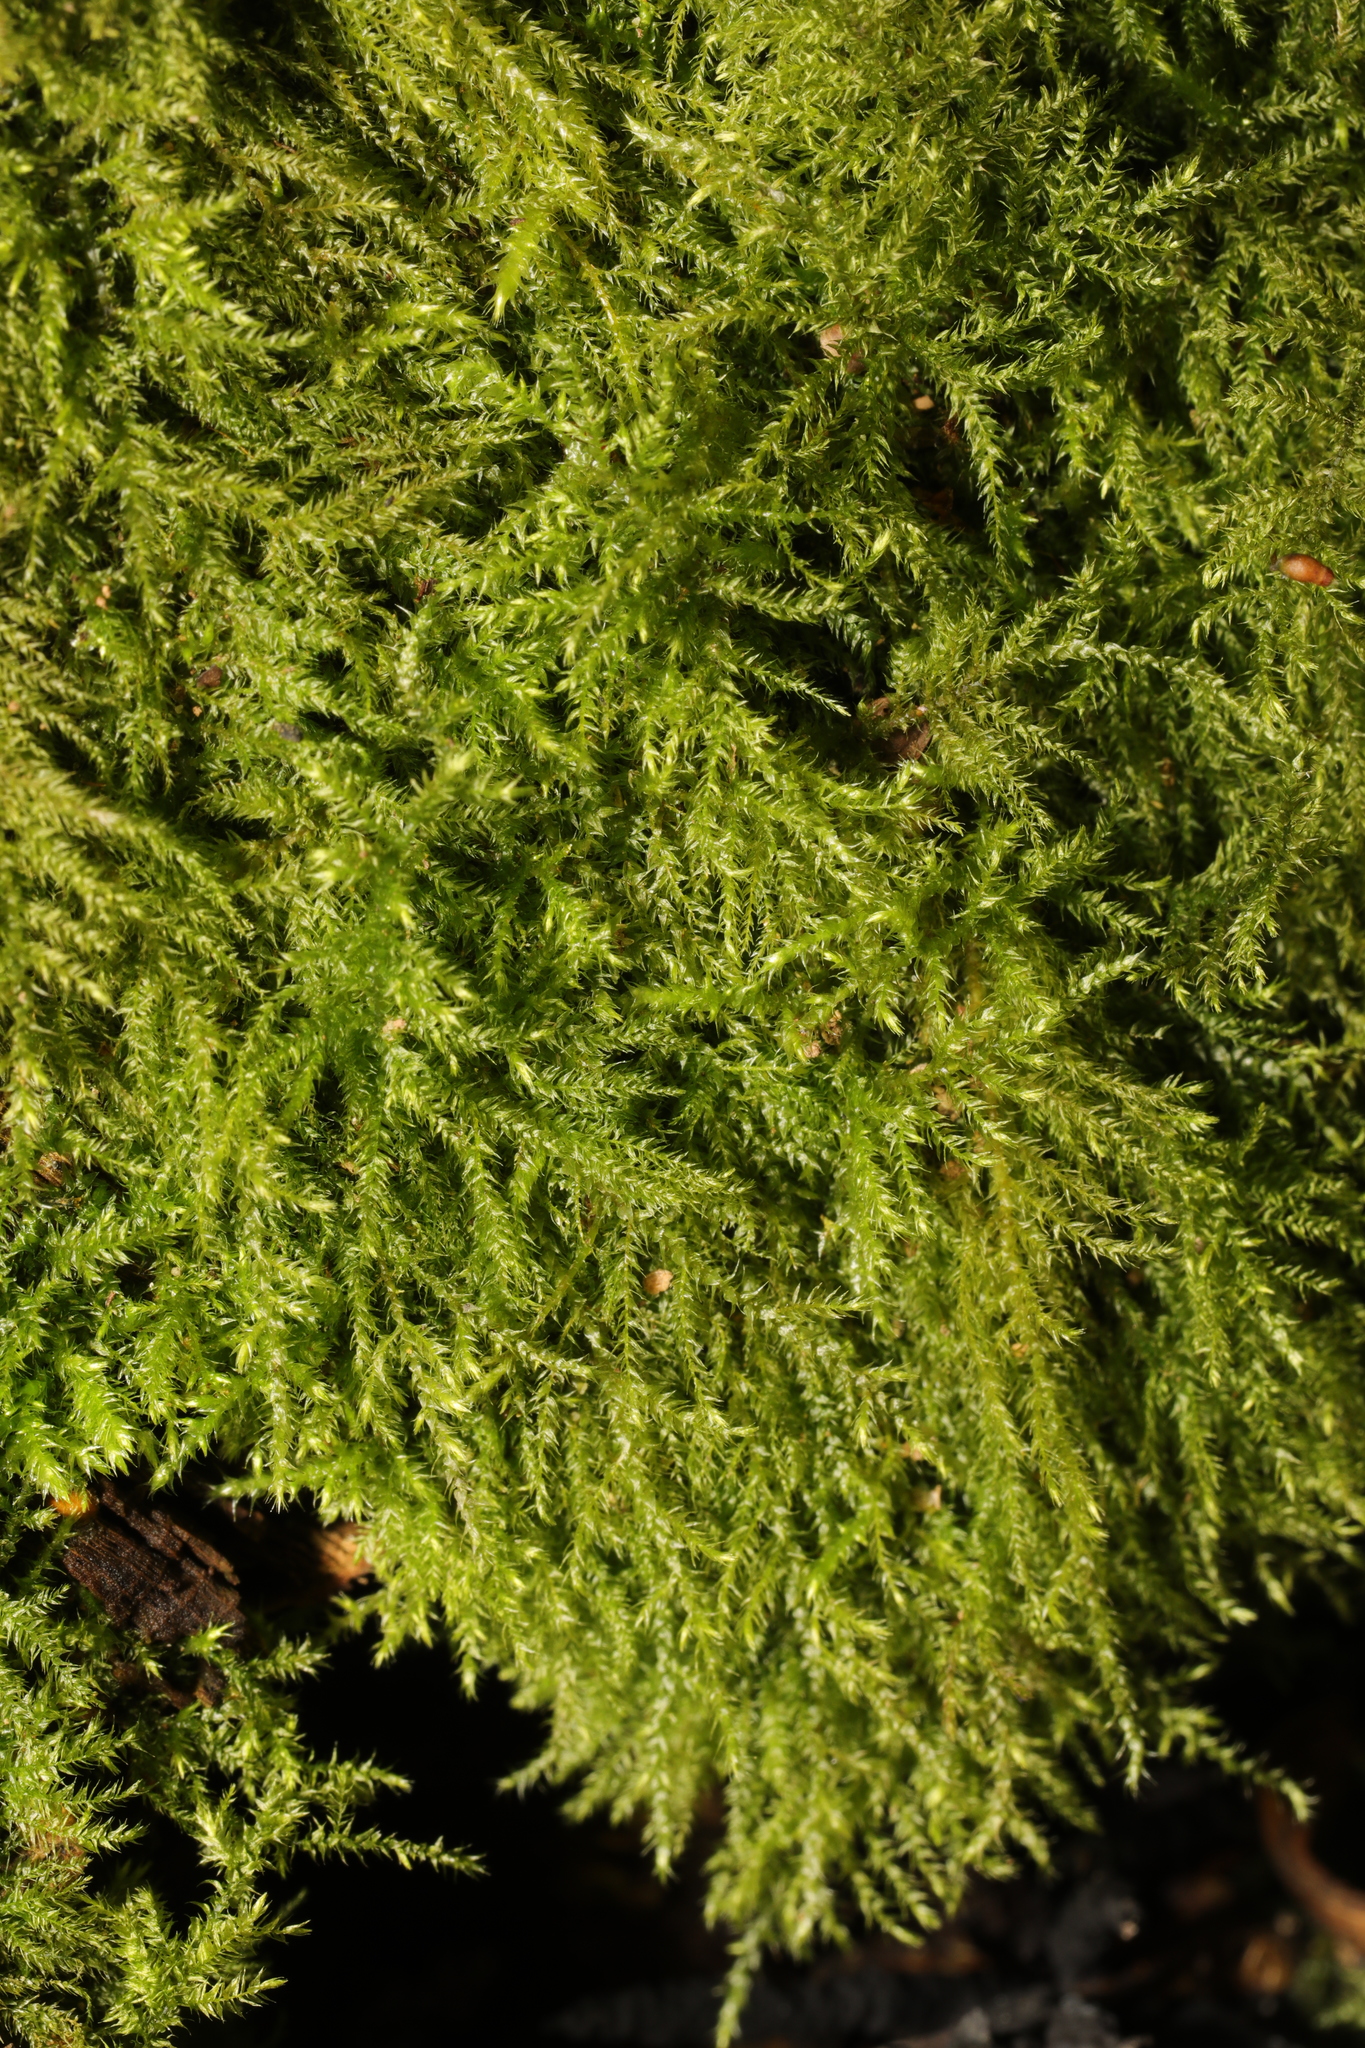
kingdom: Plantae
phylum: Bryophyta
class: Bryopsida
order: Hypnales
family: Brachytheciaceae
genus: Kindbergia
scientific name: Kindbergia praelonga
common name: Slender beaked moss
